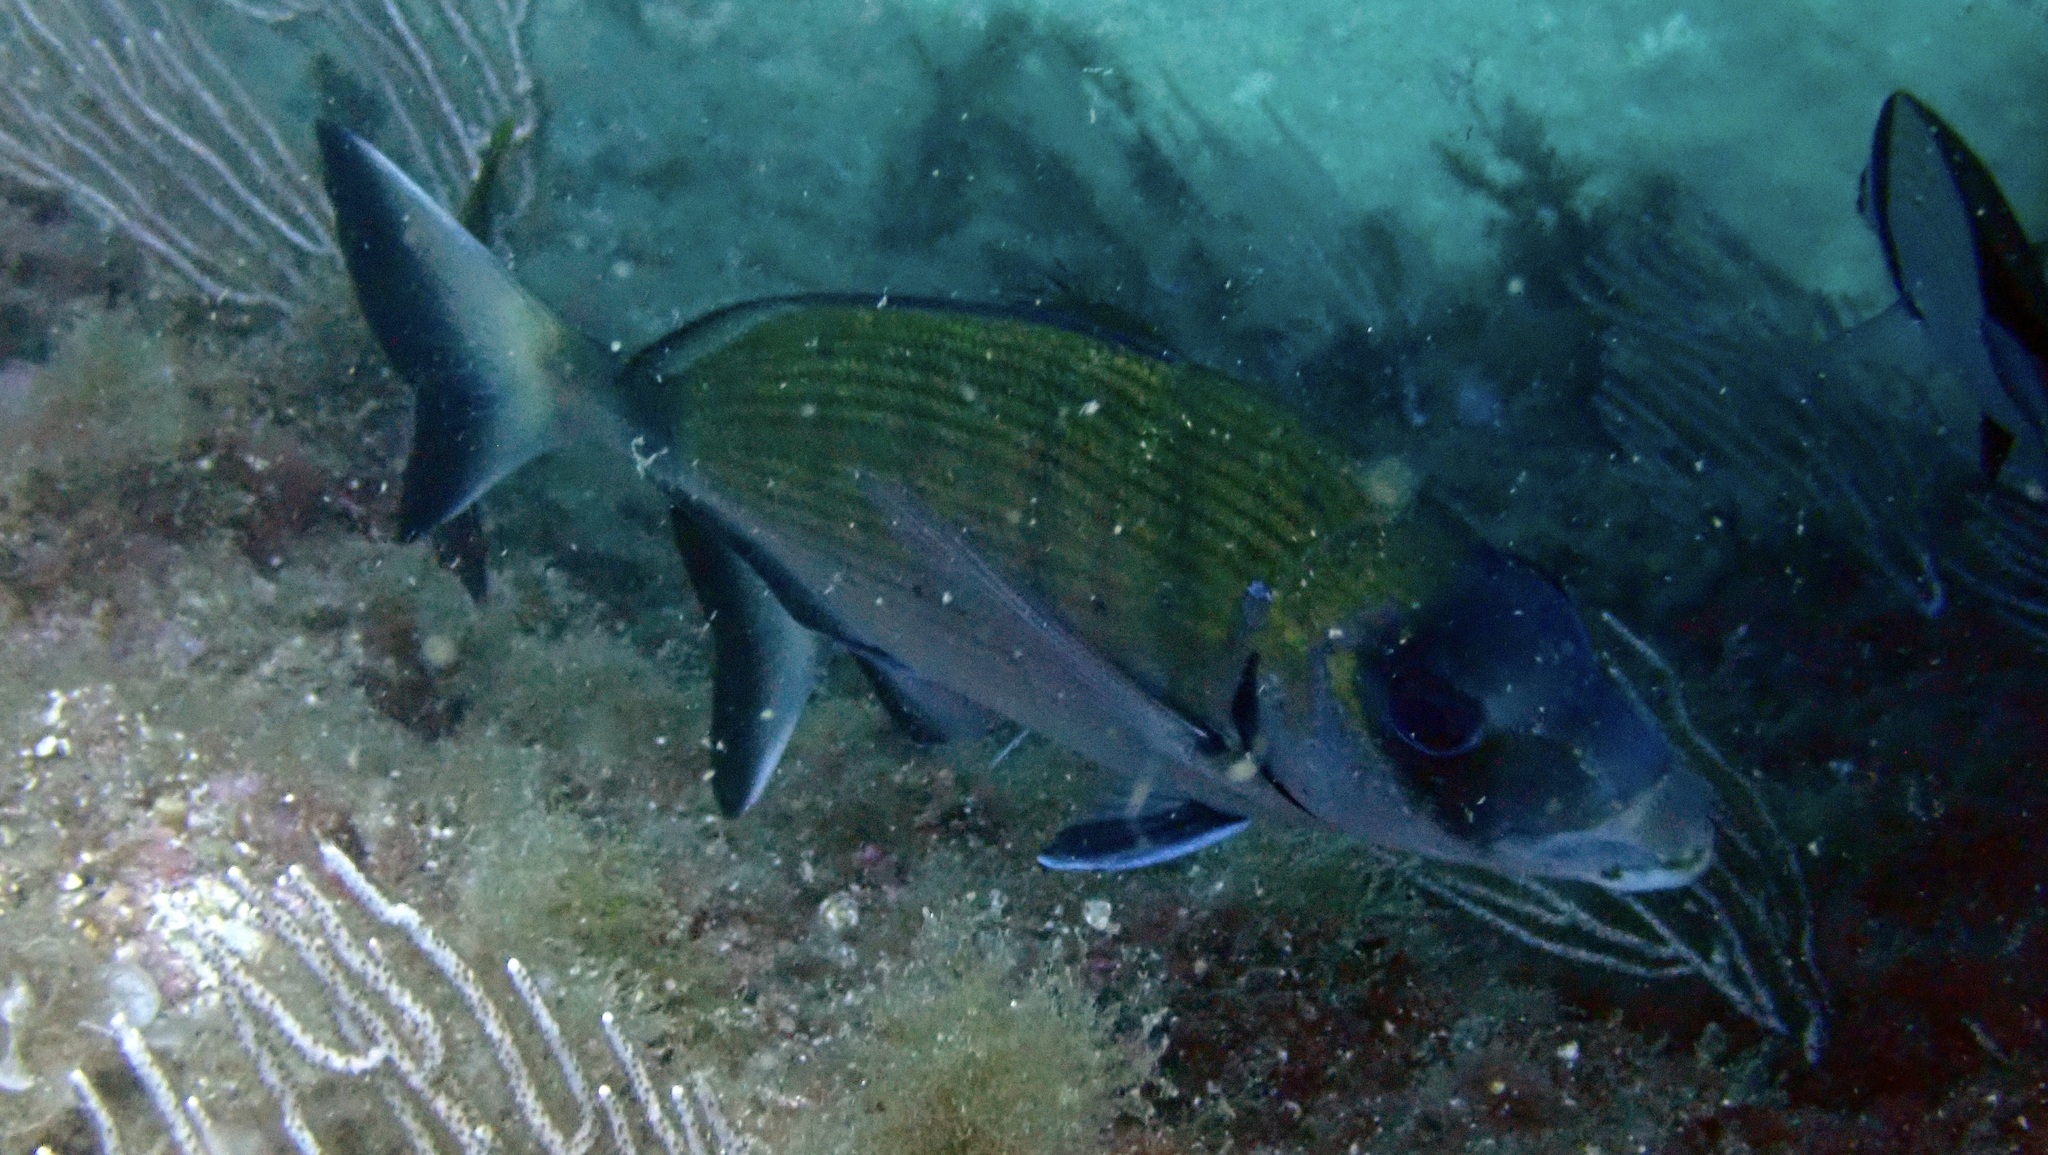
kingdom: Animalia
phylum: Chordata
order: Perciformes
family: Sparidae
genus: Diplodus
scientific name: Diplodus sargus
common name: White seabream
